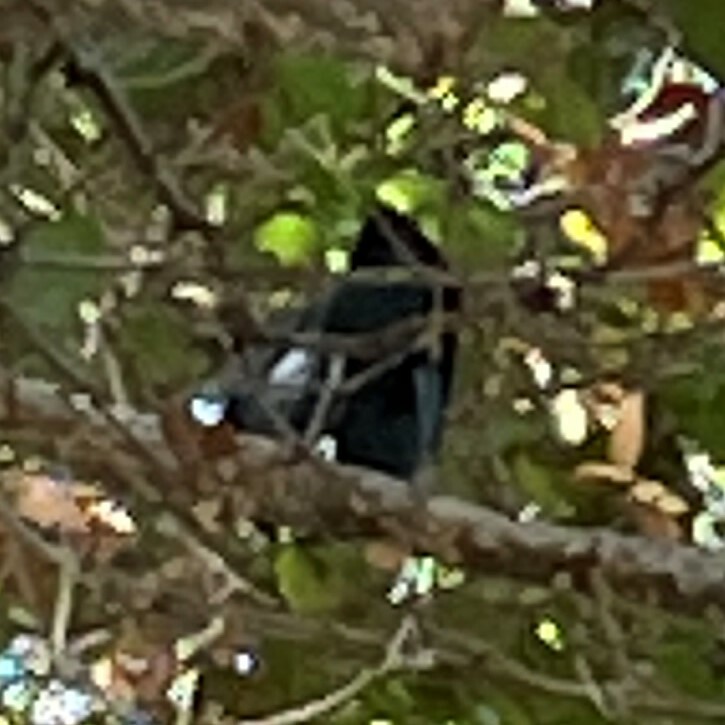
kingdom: Animalia
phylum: Chordata
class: Aves
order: Passeriformes
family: Corvidae
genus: Cyanocitta
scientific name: Cyanocitta stelleri
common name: Steller's jay
